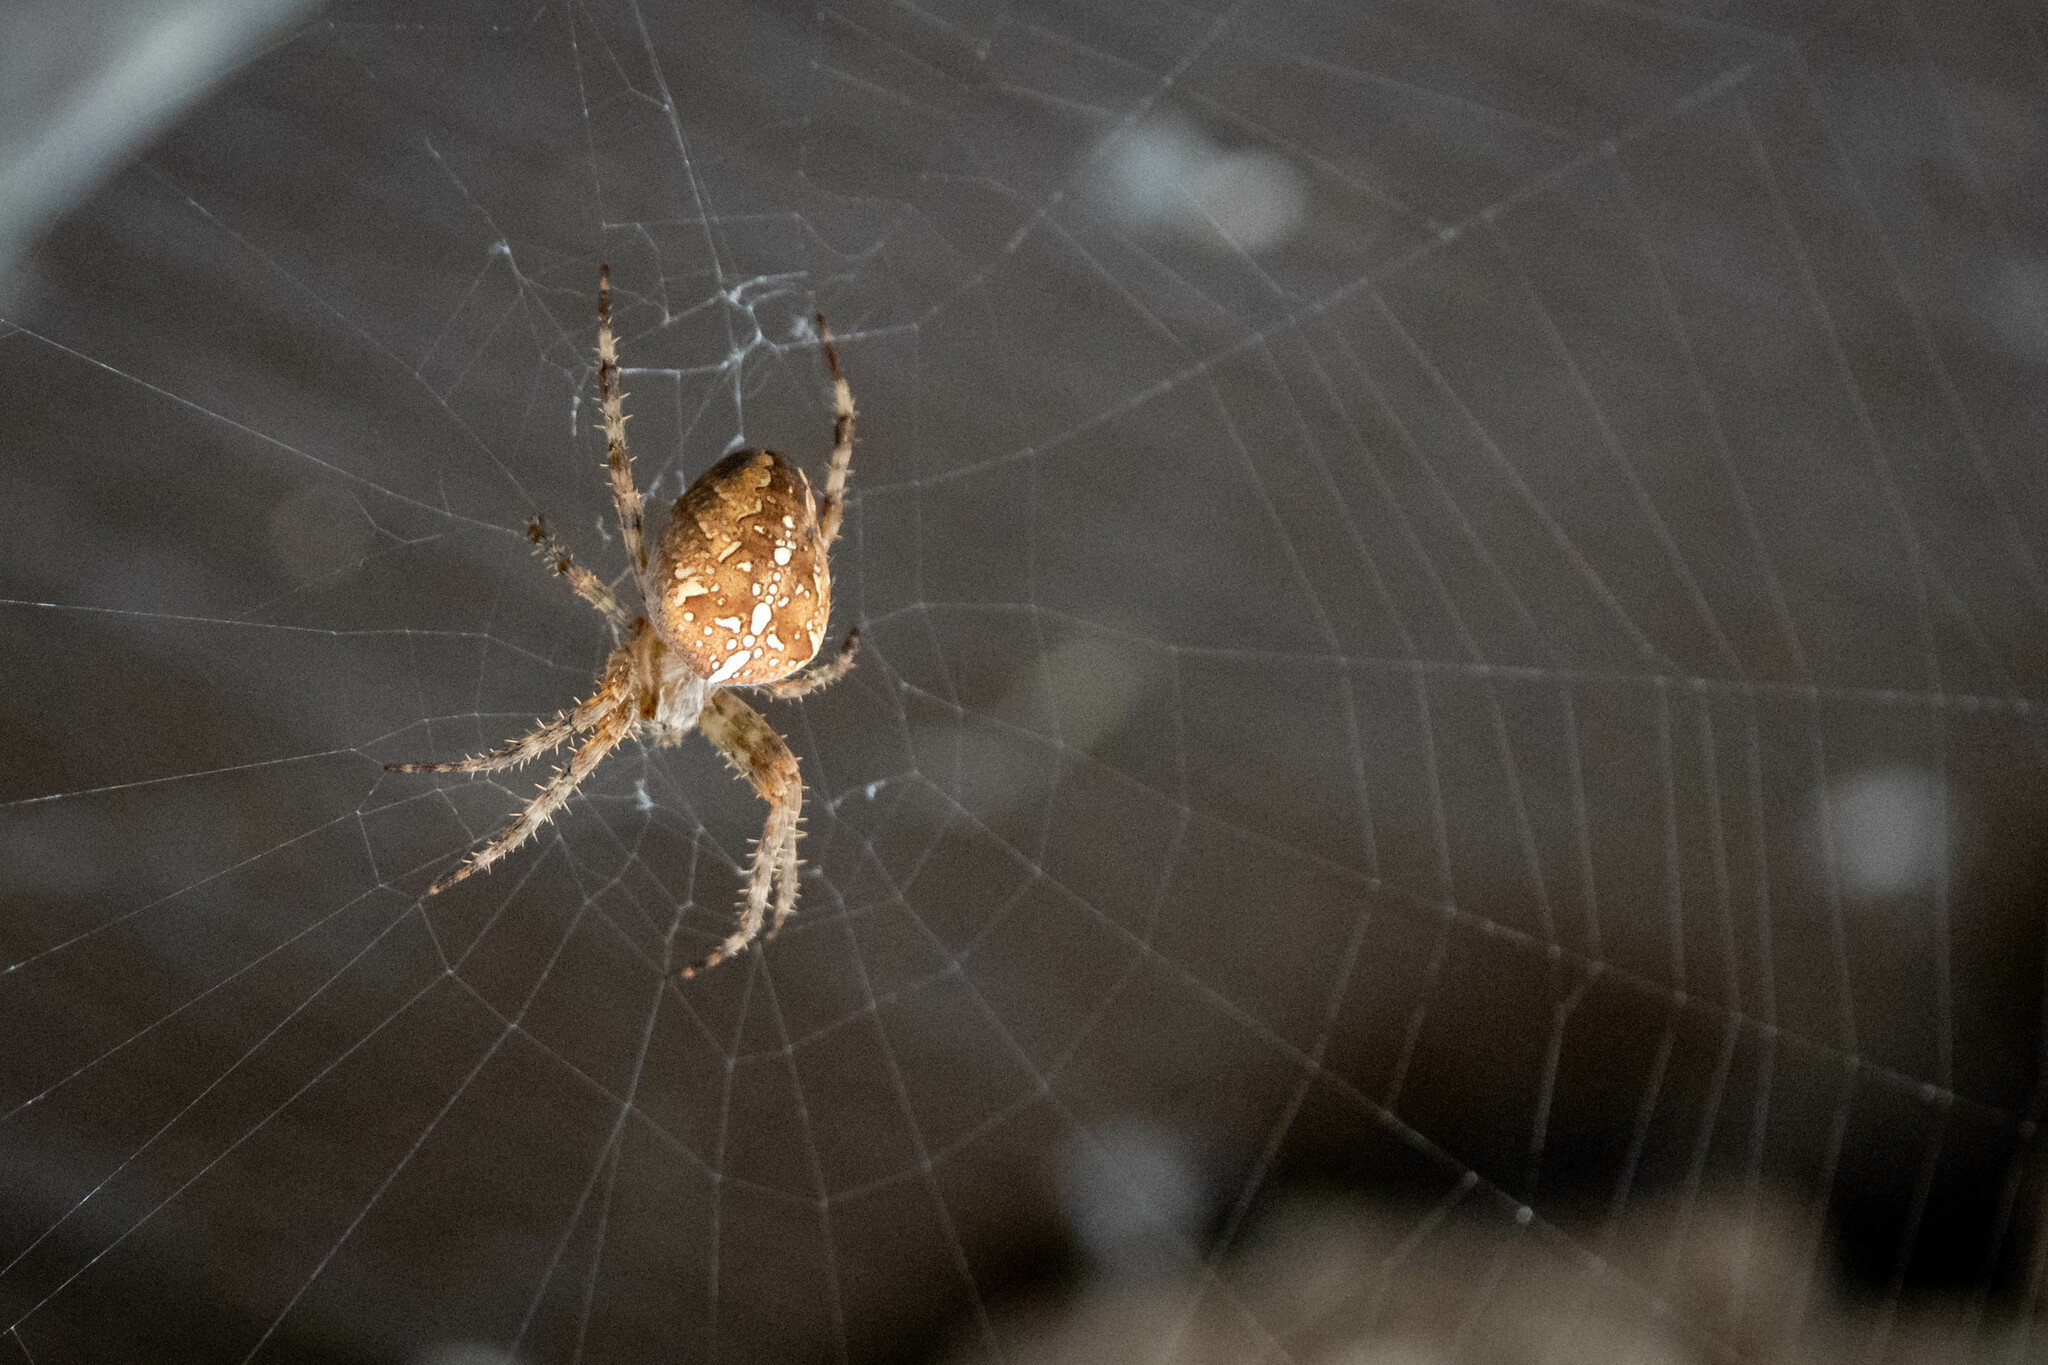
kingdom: Animalia
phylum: Arthropoda
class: Arachnida
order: Araneae
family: Araneidae
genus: Araneus
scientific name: Araneus diadematus
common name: Cross orbweaver
